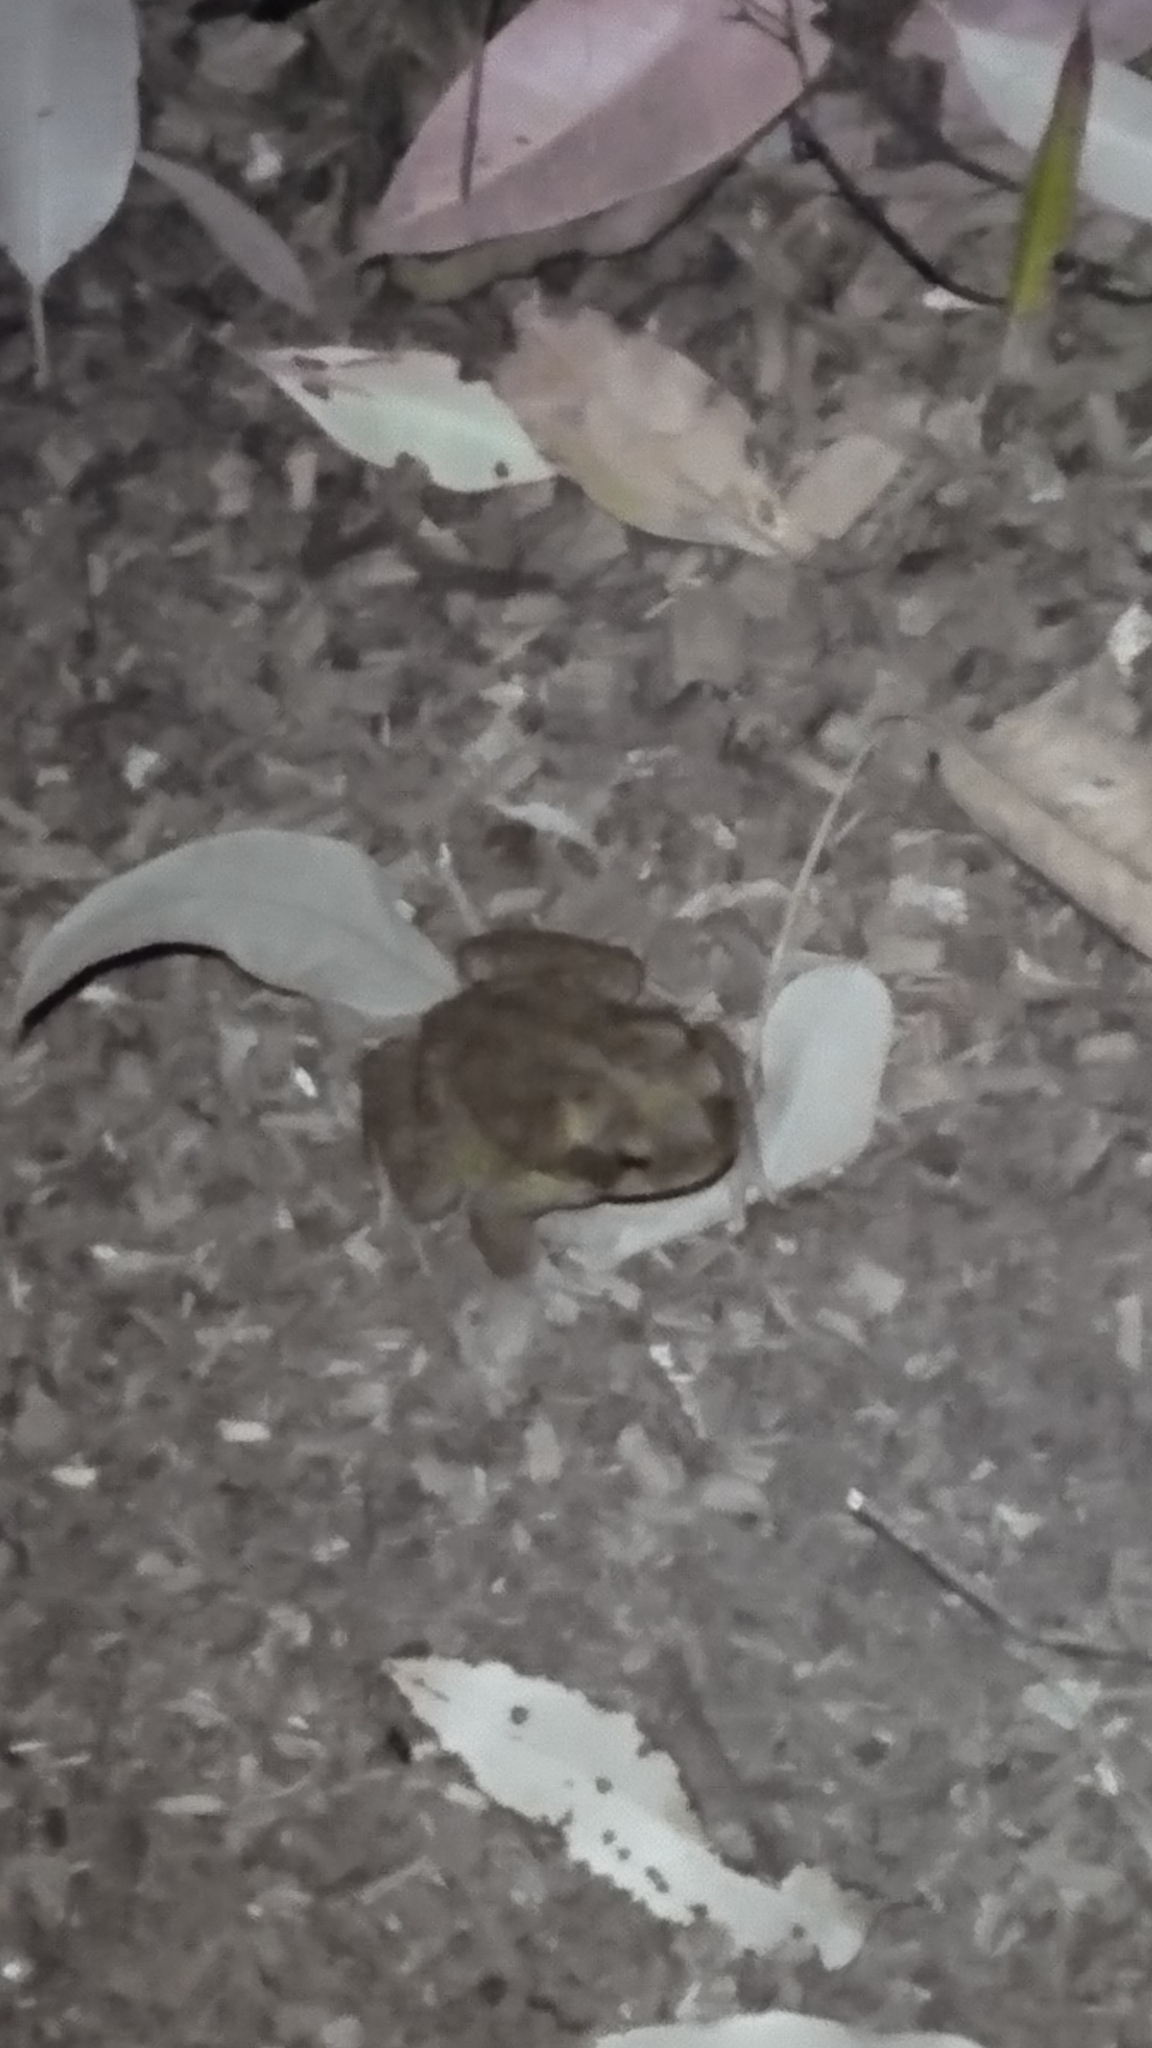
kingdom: Animalia
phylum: Chordata
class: Amphibia
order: Anura
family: Bufonidae
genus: Rhinella
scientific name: Rhinella marina
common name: Cane toad
